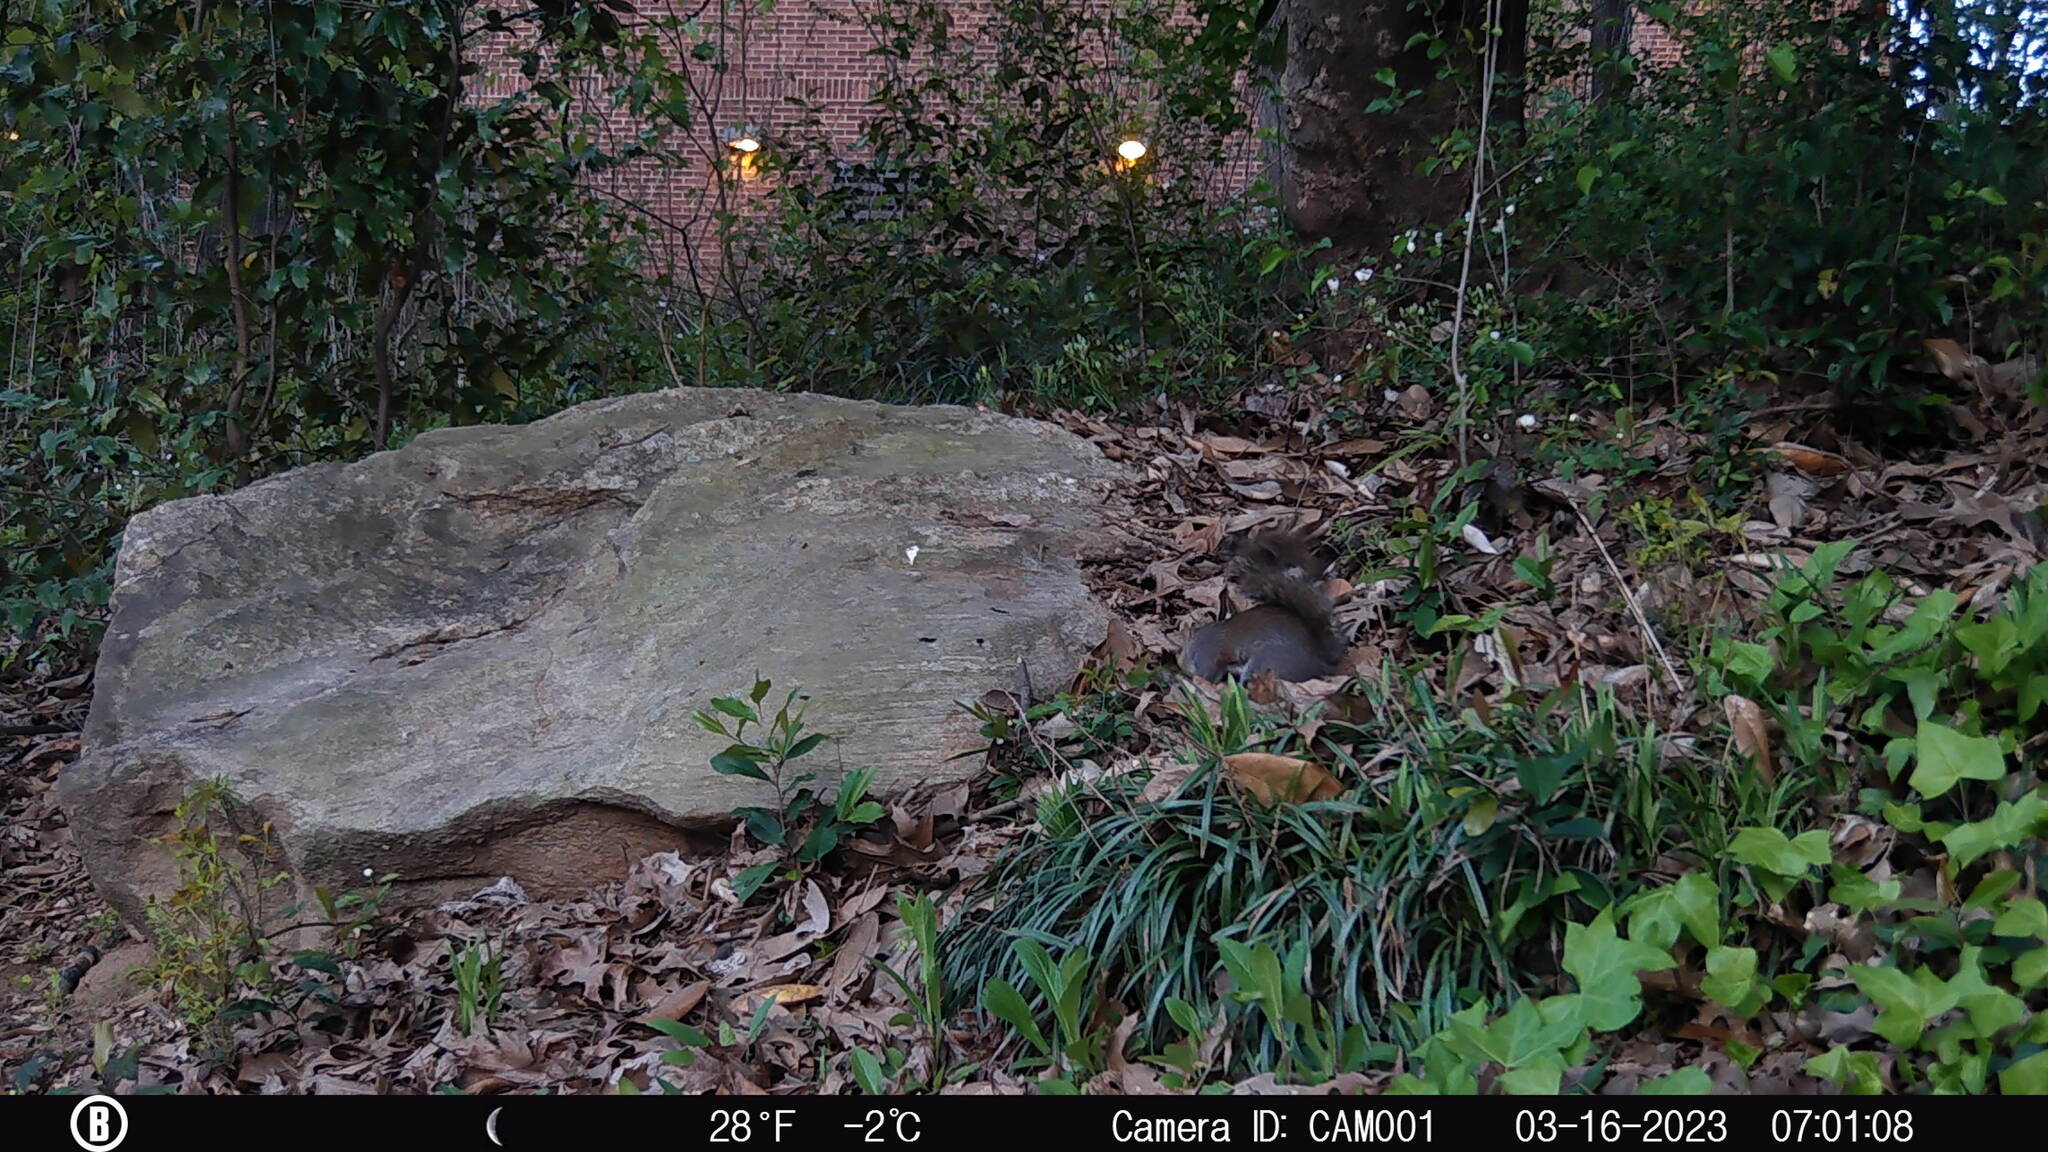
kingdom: Animalia
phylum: Chordata
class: Mammalia
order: Rodentia
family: Sciuridae
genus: Sciurus
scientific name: Sciurus carolinensis
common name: Eastern gray squirrel
